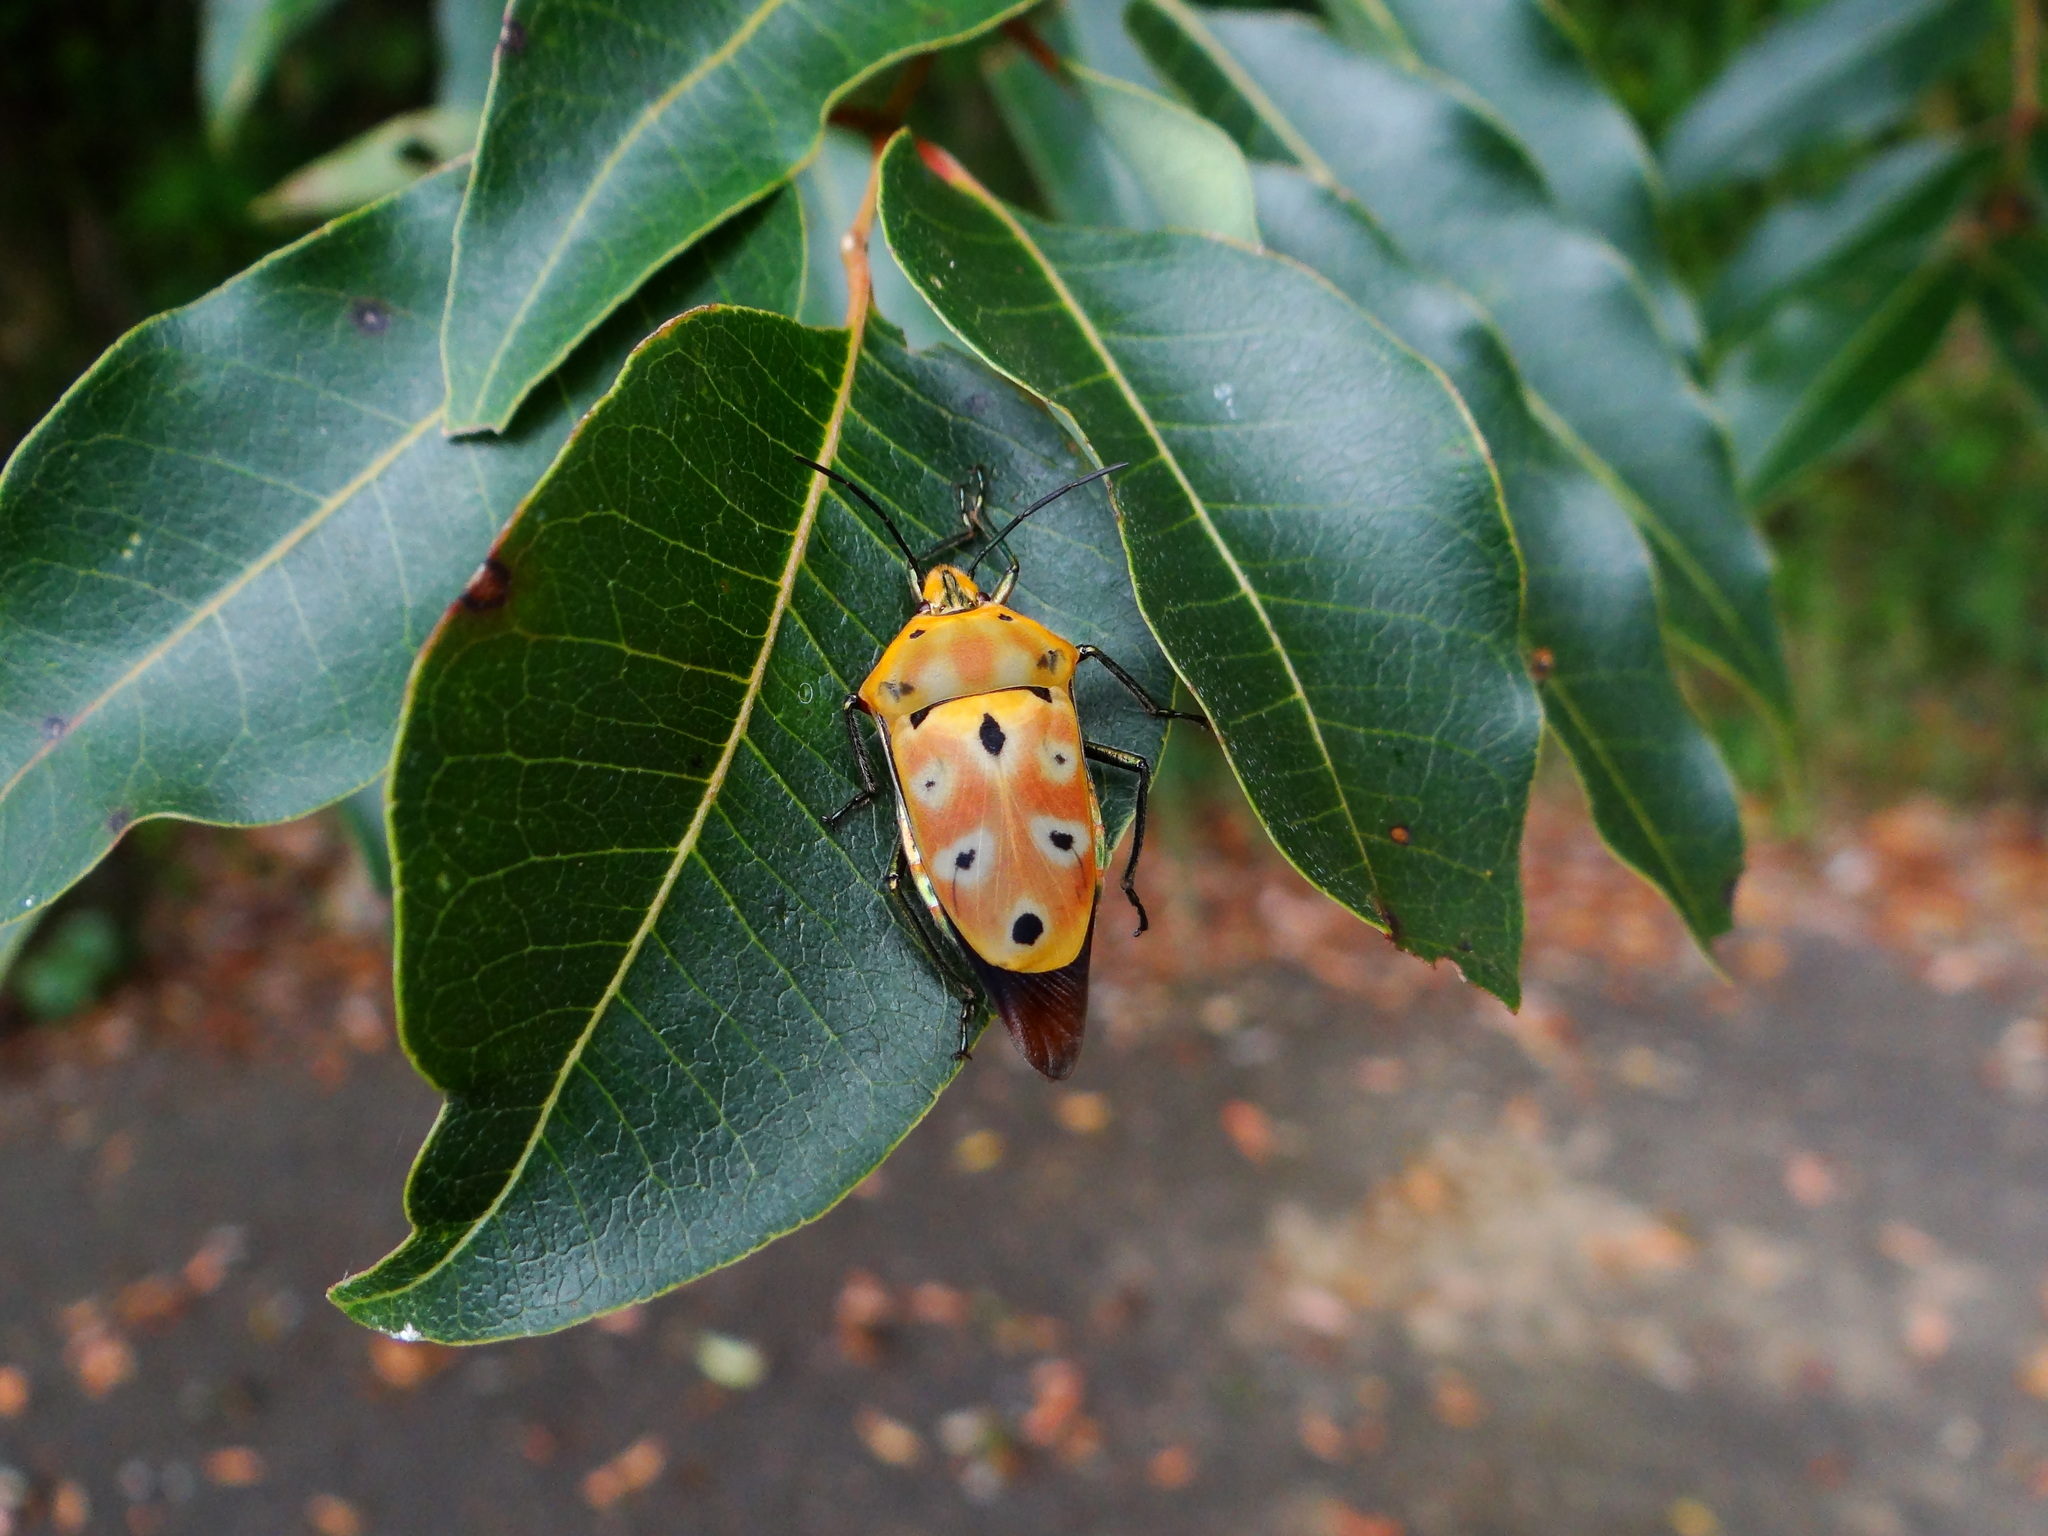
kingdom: Animalia
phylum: Arthropoda
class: Insecta
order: Hemiptera
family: Scutelleridae
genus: Cantao
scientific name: Cantao ocellatus
